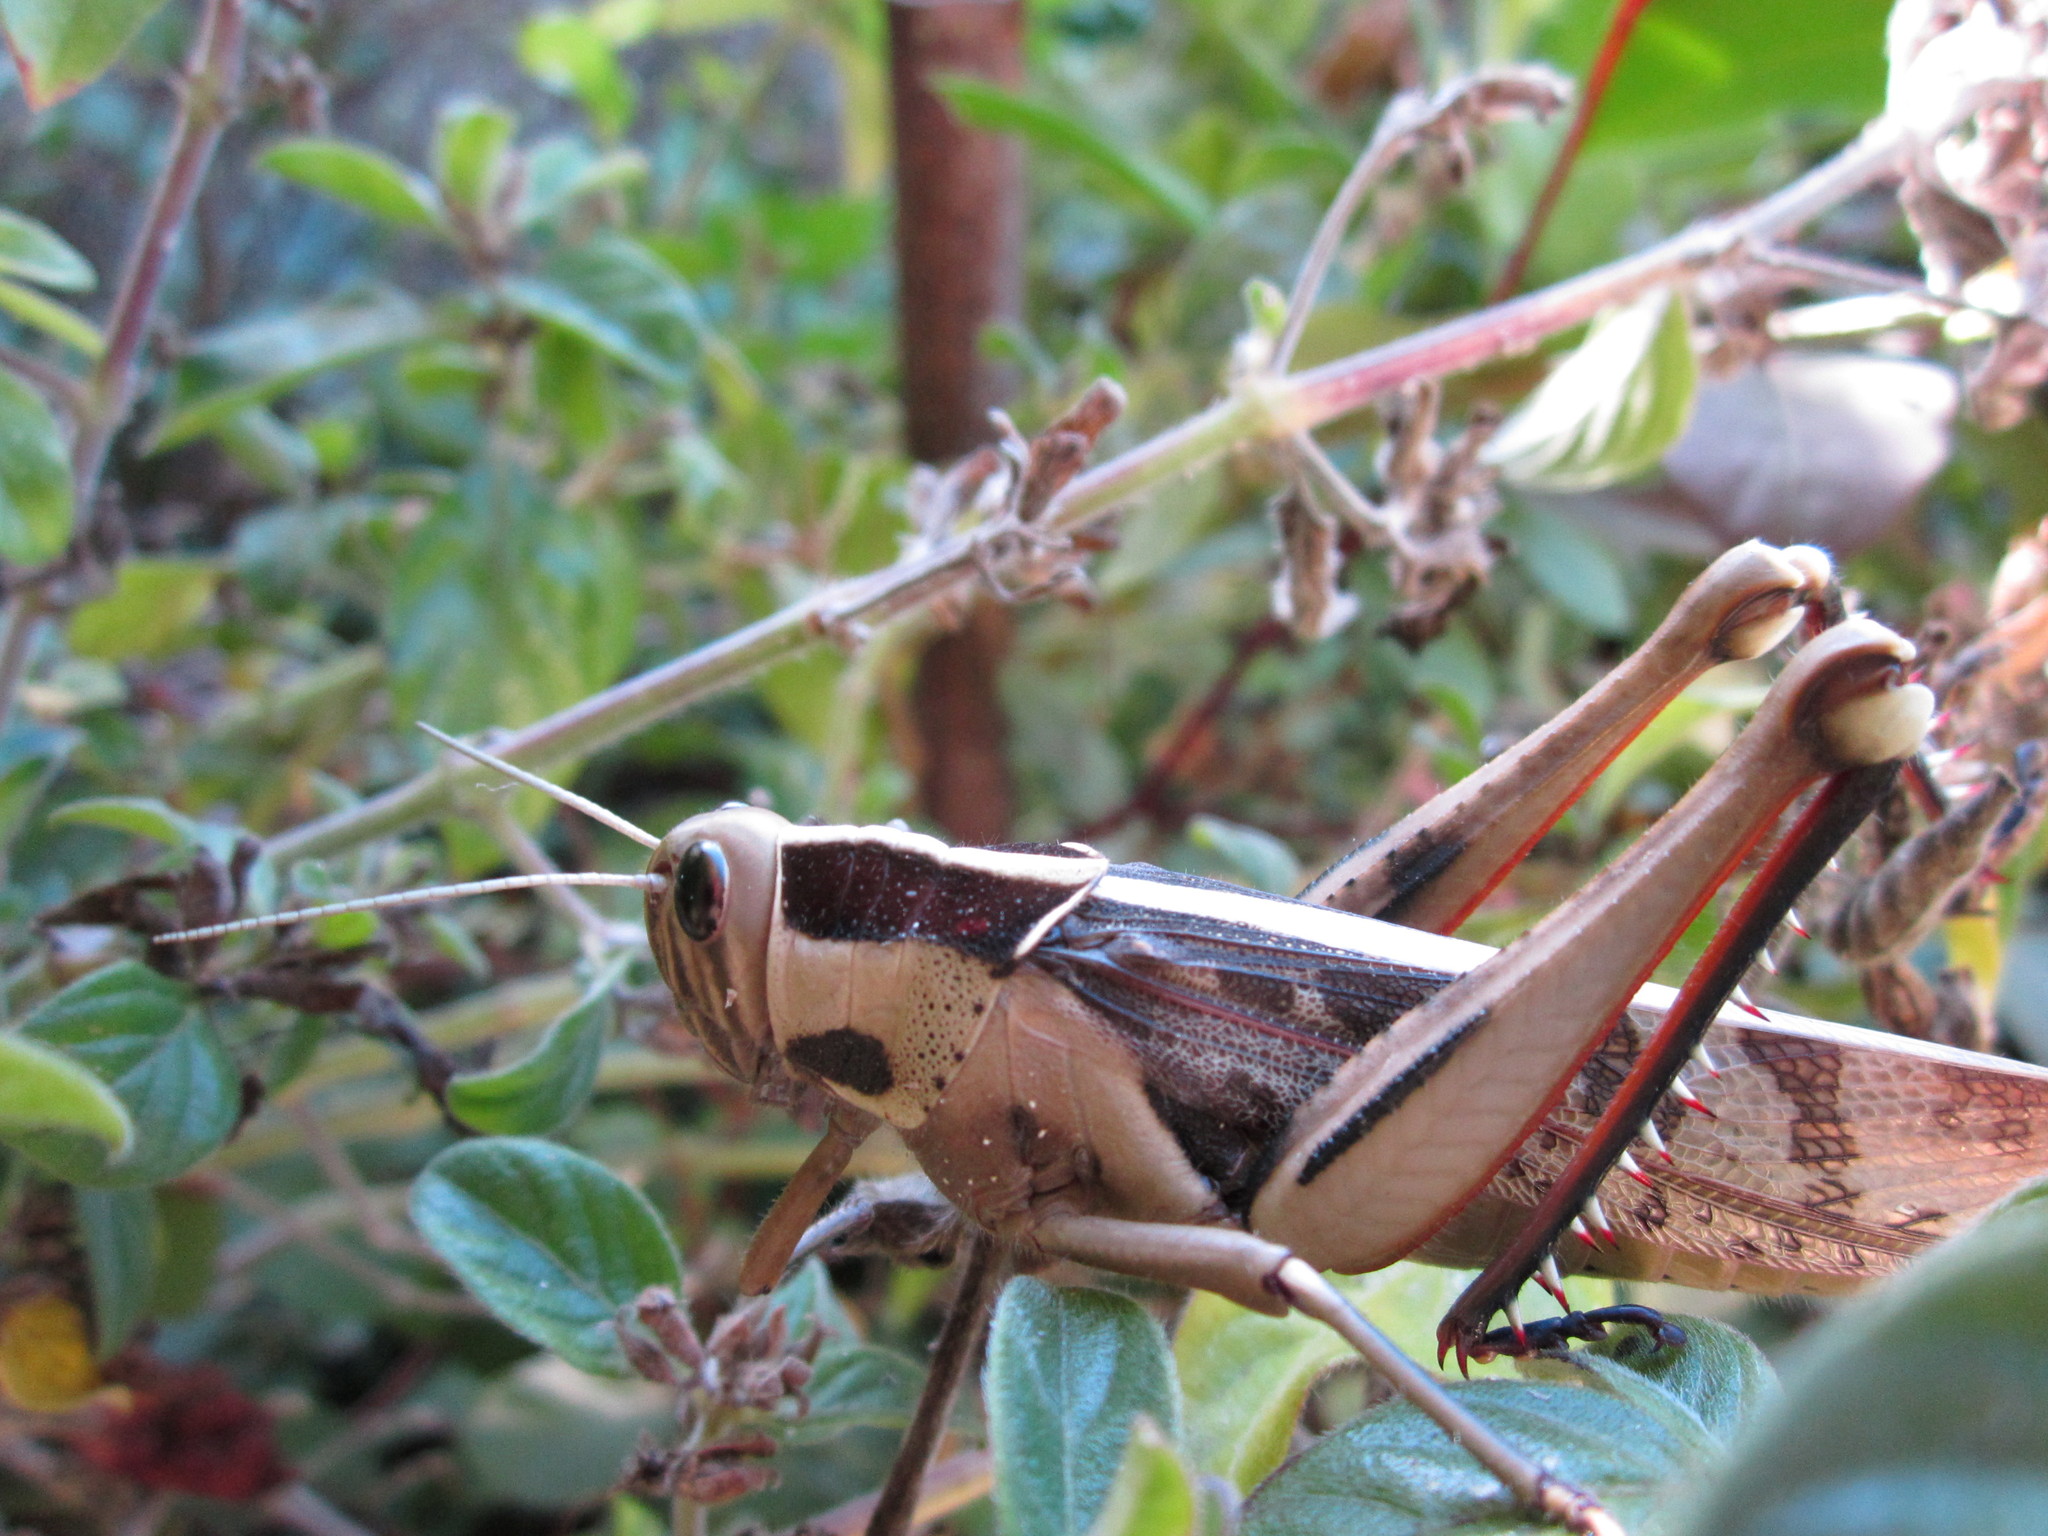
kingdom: Animalia
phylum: Arthropoda
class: Insecta
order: Orthoptera
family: Acrididae
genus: Acanthacris
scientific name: Acanthacris ruficornis
